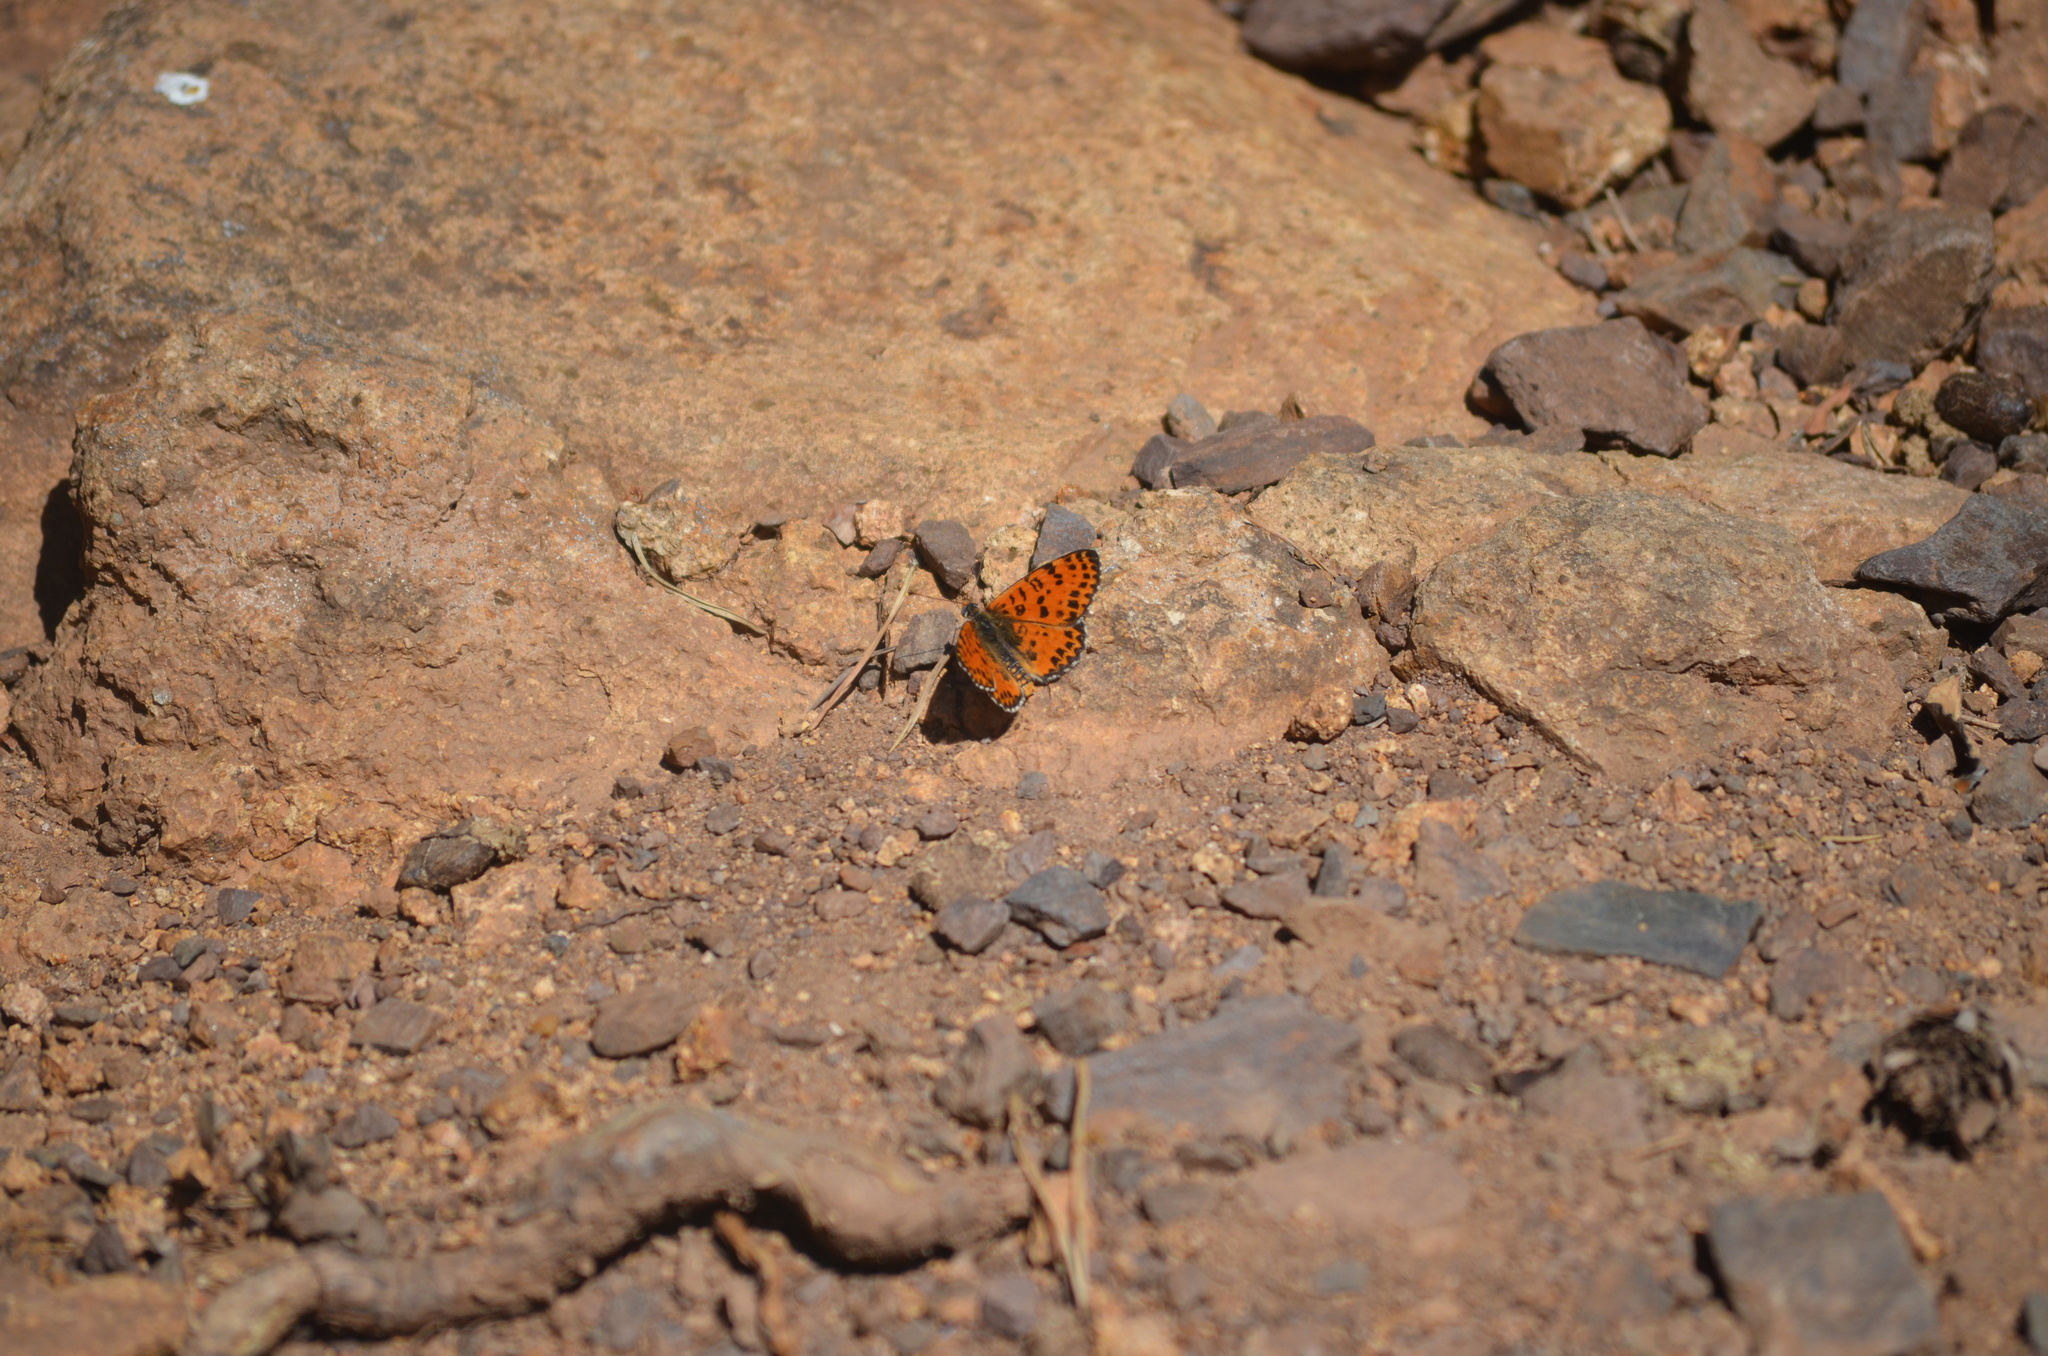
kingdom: Animalia
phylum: Arthropoda
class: Insecta
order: Lepidoptera
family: Nymphalidae
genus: Melitaea
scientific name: Melitaea didyma
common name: Spotted fritillary
